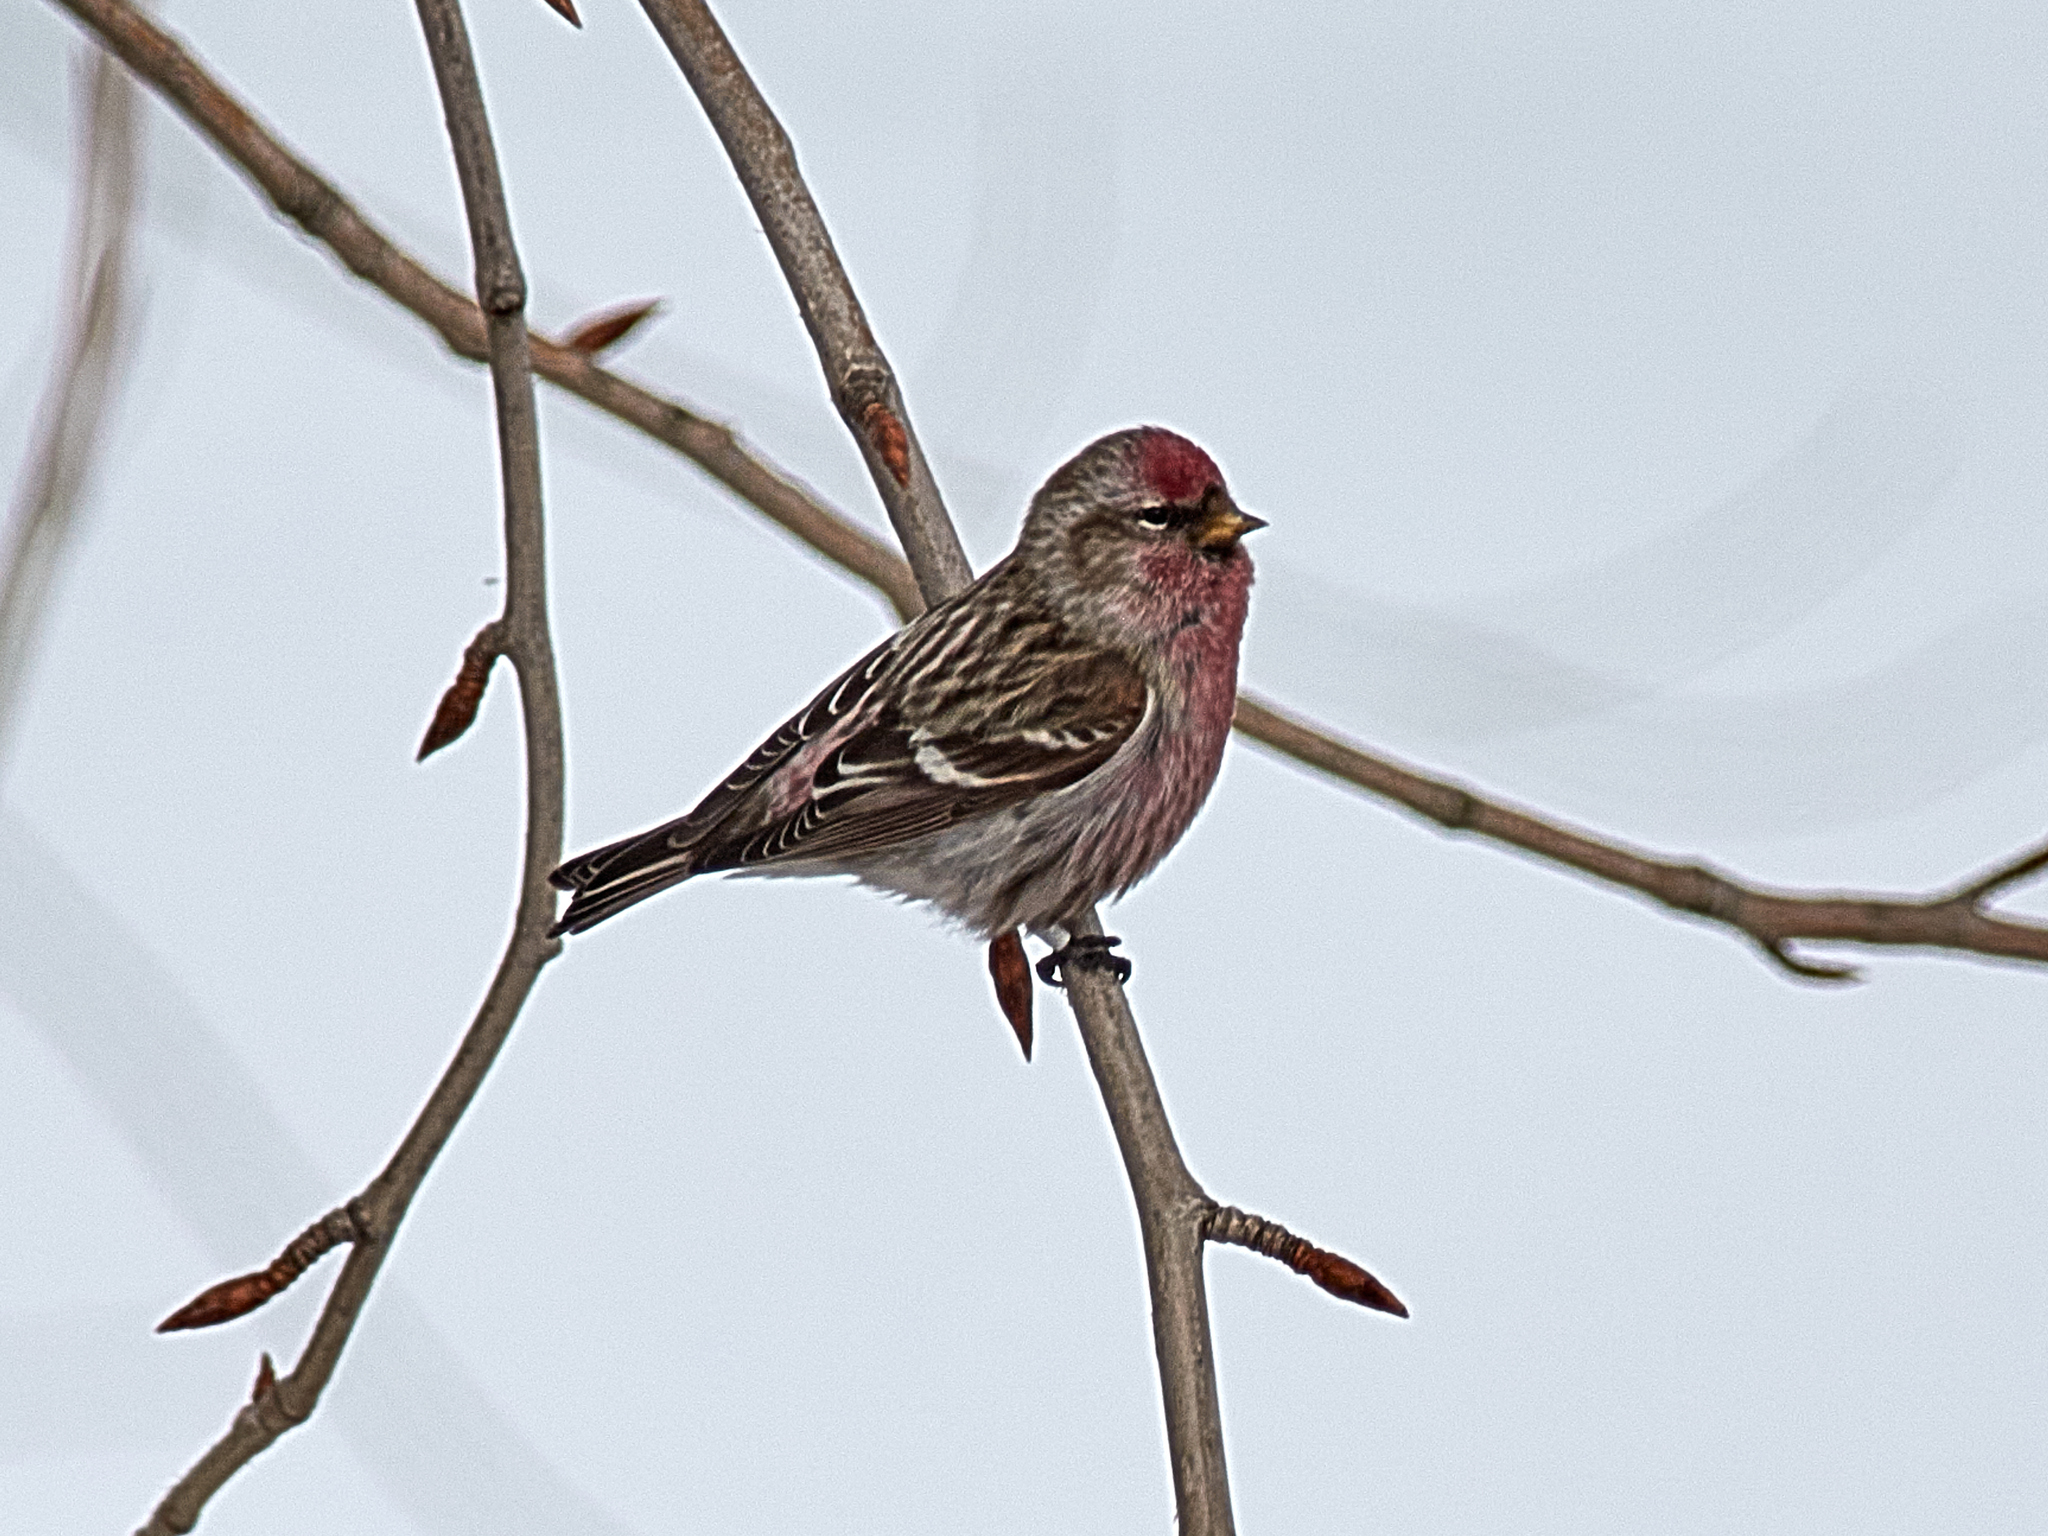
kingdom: Animalia
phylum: Chordata
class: Aves
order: Passeriformes
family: Fringillidae
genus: Acanthis
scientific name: Acanthis flammea
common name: Common redpoll
